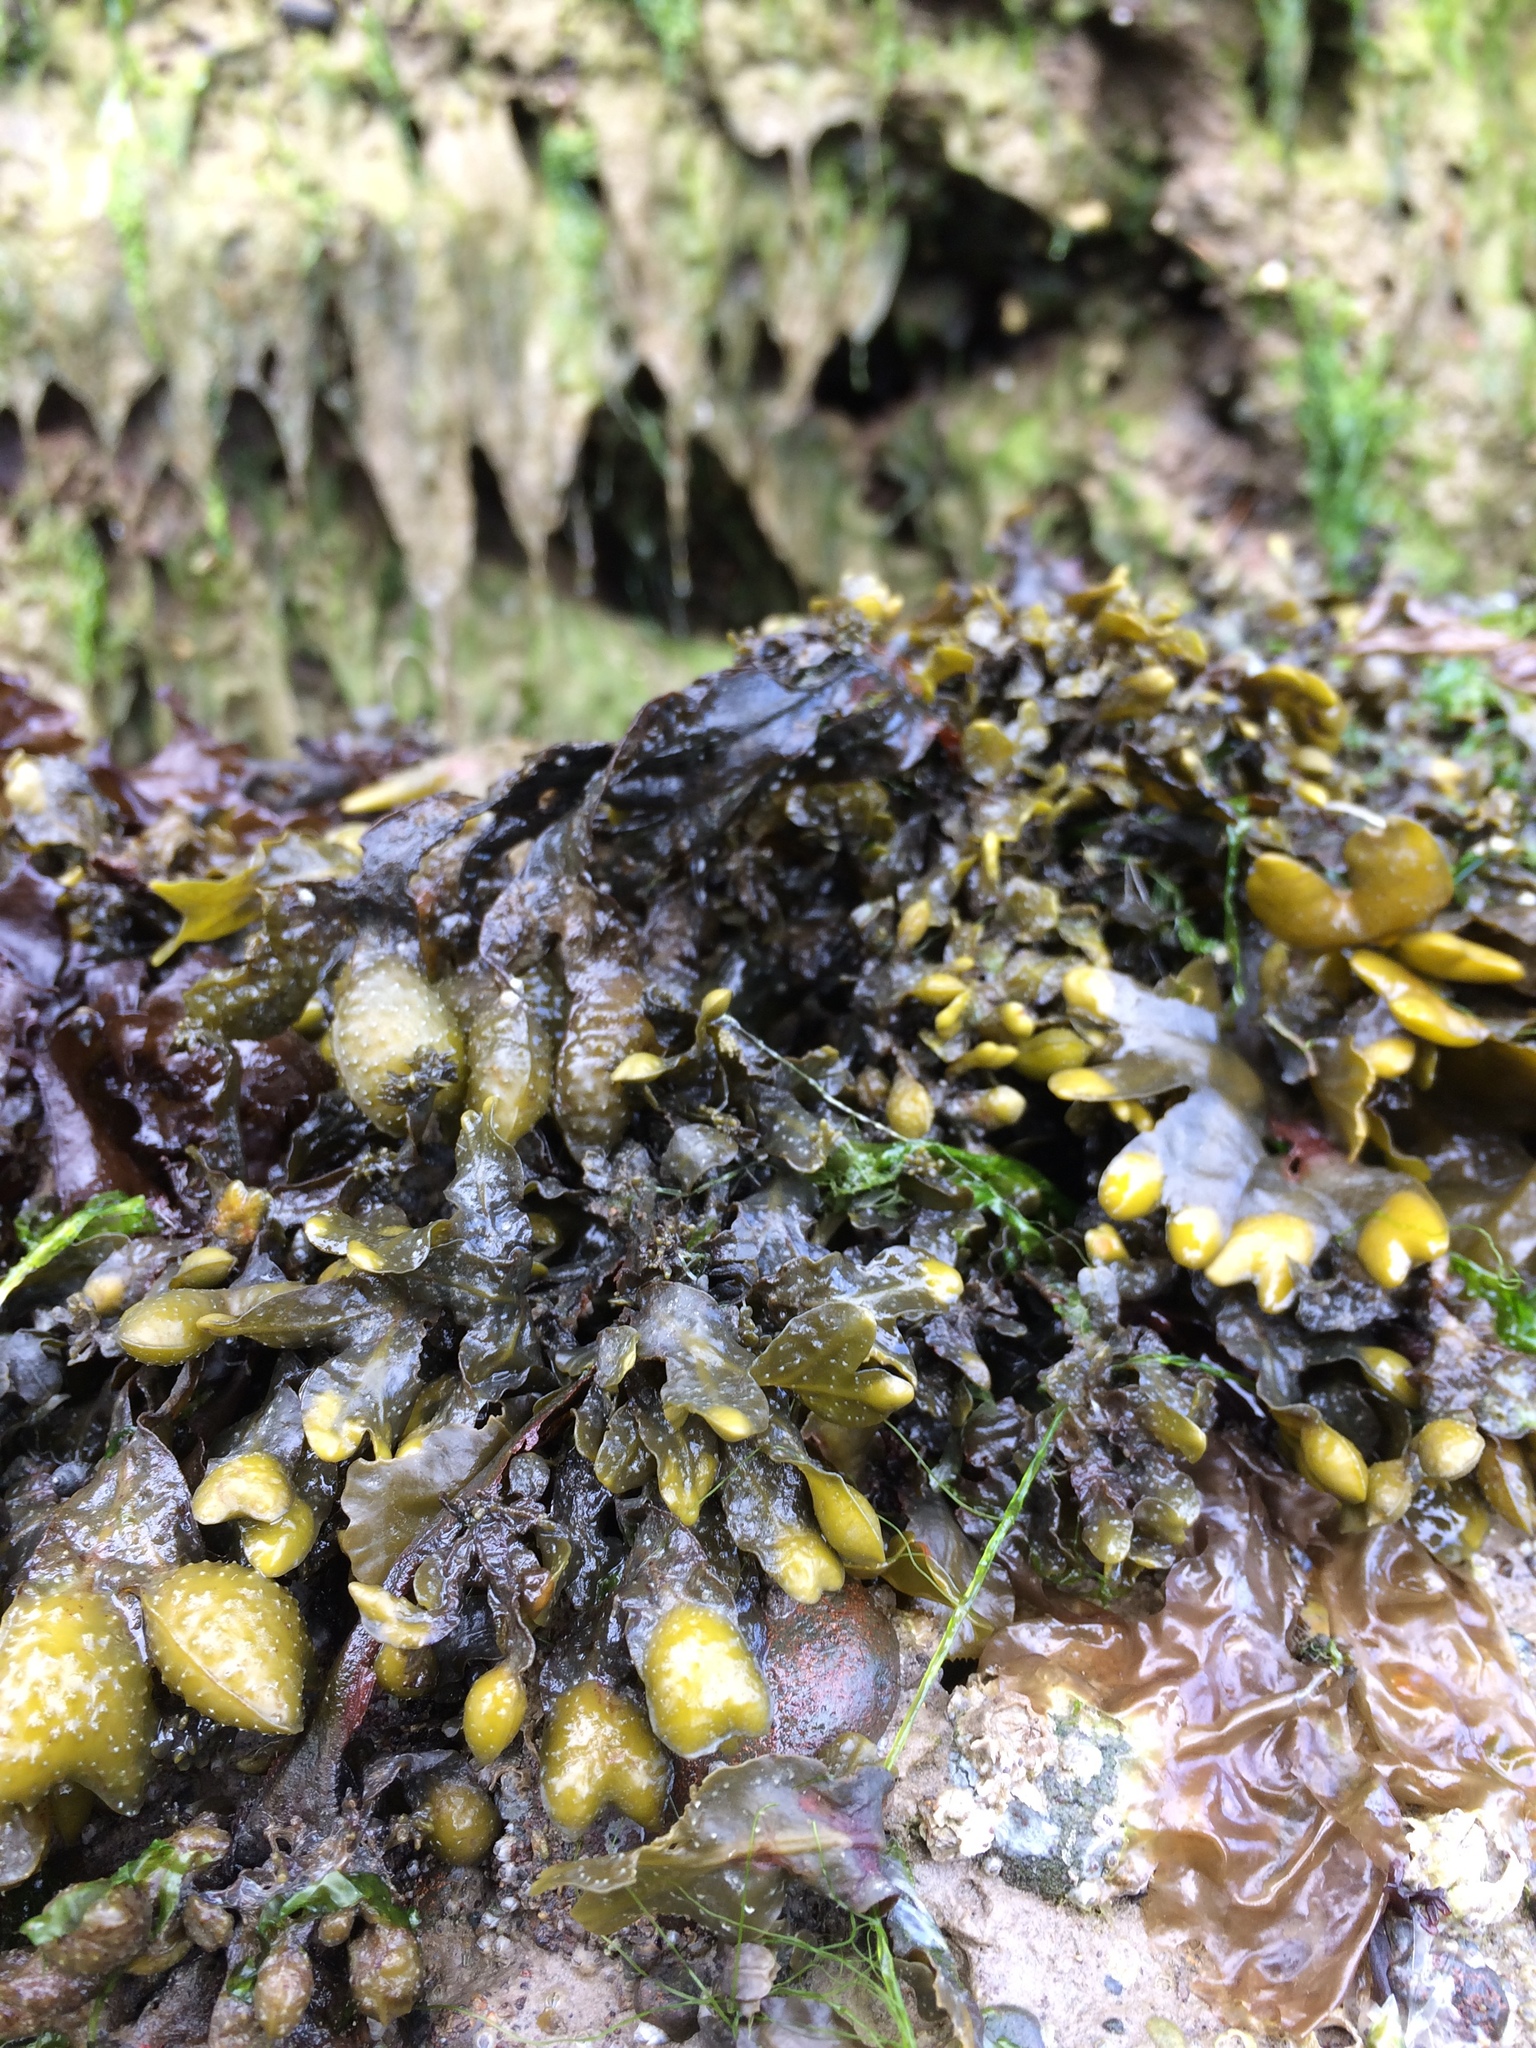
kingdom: Chromista
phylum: Ochrophyta
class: Phaeophyceae
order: Fucales
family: Fucaceae
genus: Fucus
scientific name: Fucus distichus
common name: Rockweed
